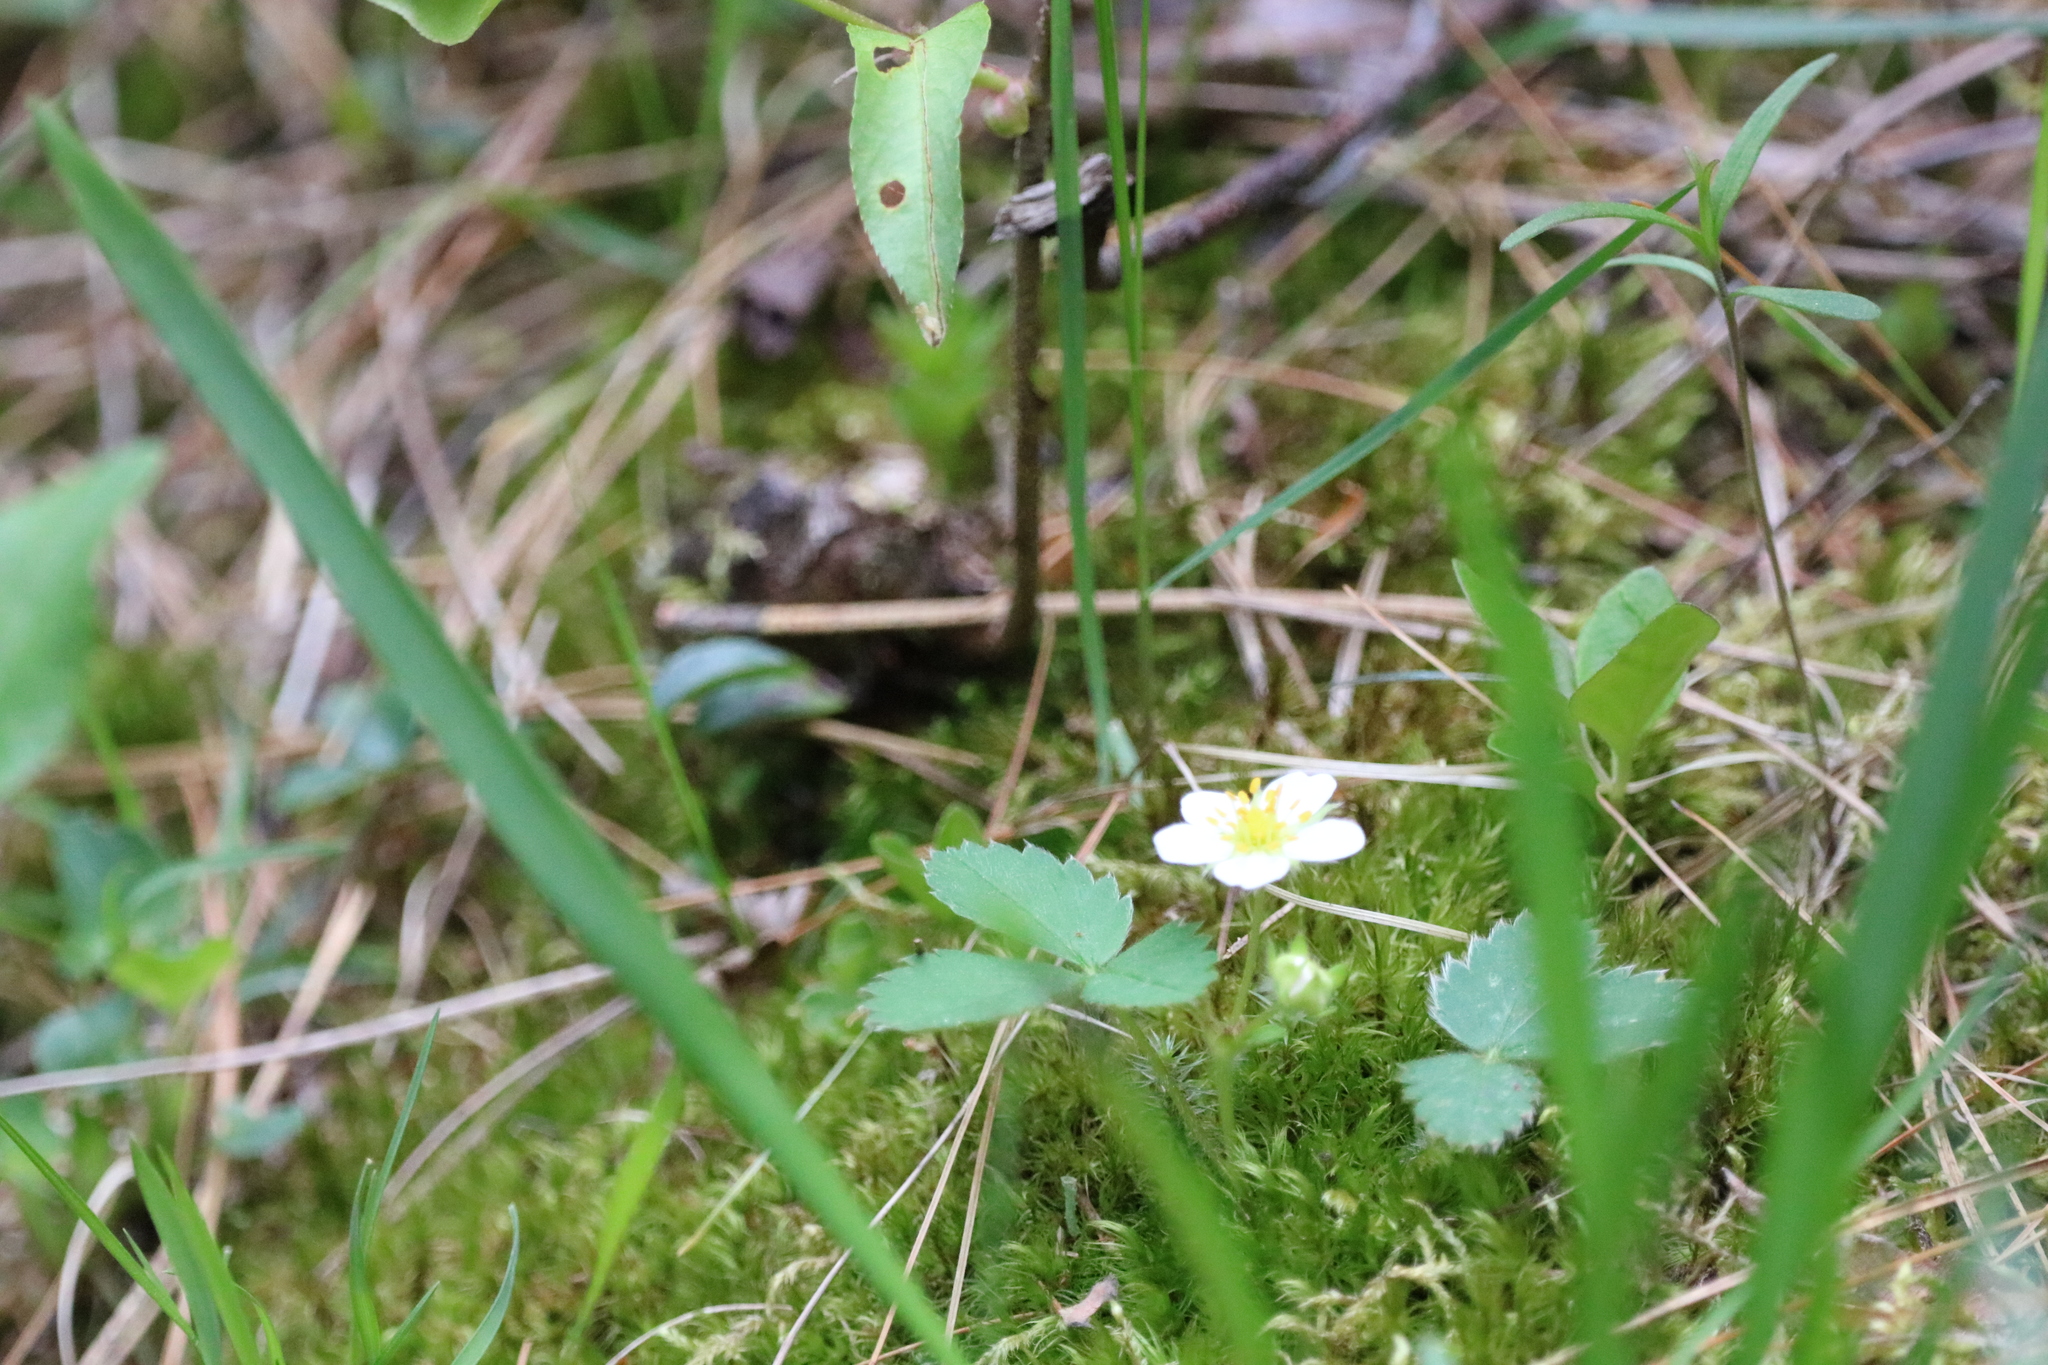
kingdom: Plantae
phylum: Tracheophyta
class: Magnoliopsida
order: Rosales
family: Rosaceae
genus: Fragaria
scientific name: Fragaria virginiana
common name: Thickleaved wild strawberry
